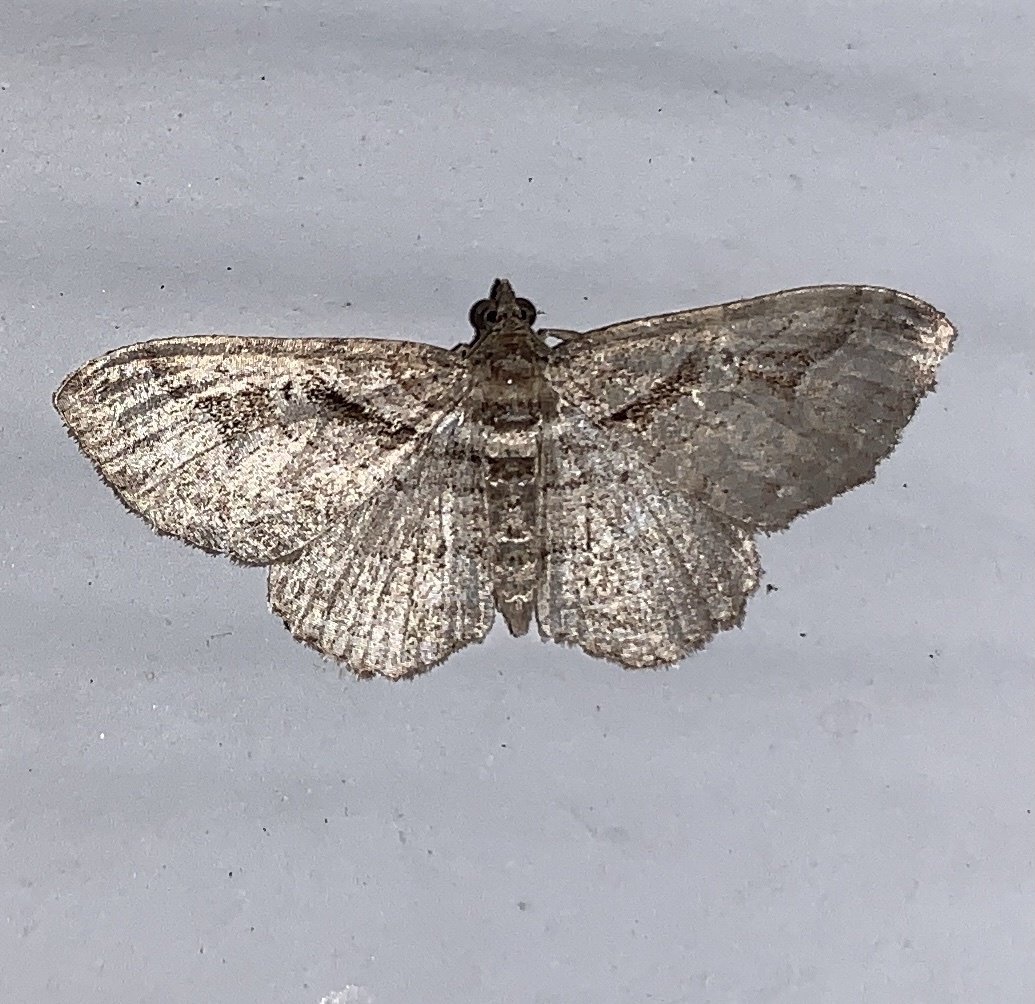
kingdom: Animalia
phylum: Arthropoda
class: Insecta
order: Lepidoptera
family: Geometridae
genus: Costaconvexa
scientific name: Costaconvexa centrostrigaria
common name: Bent-line carpet
